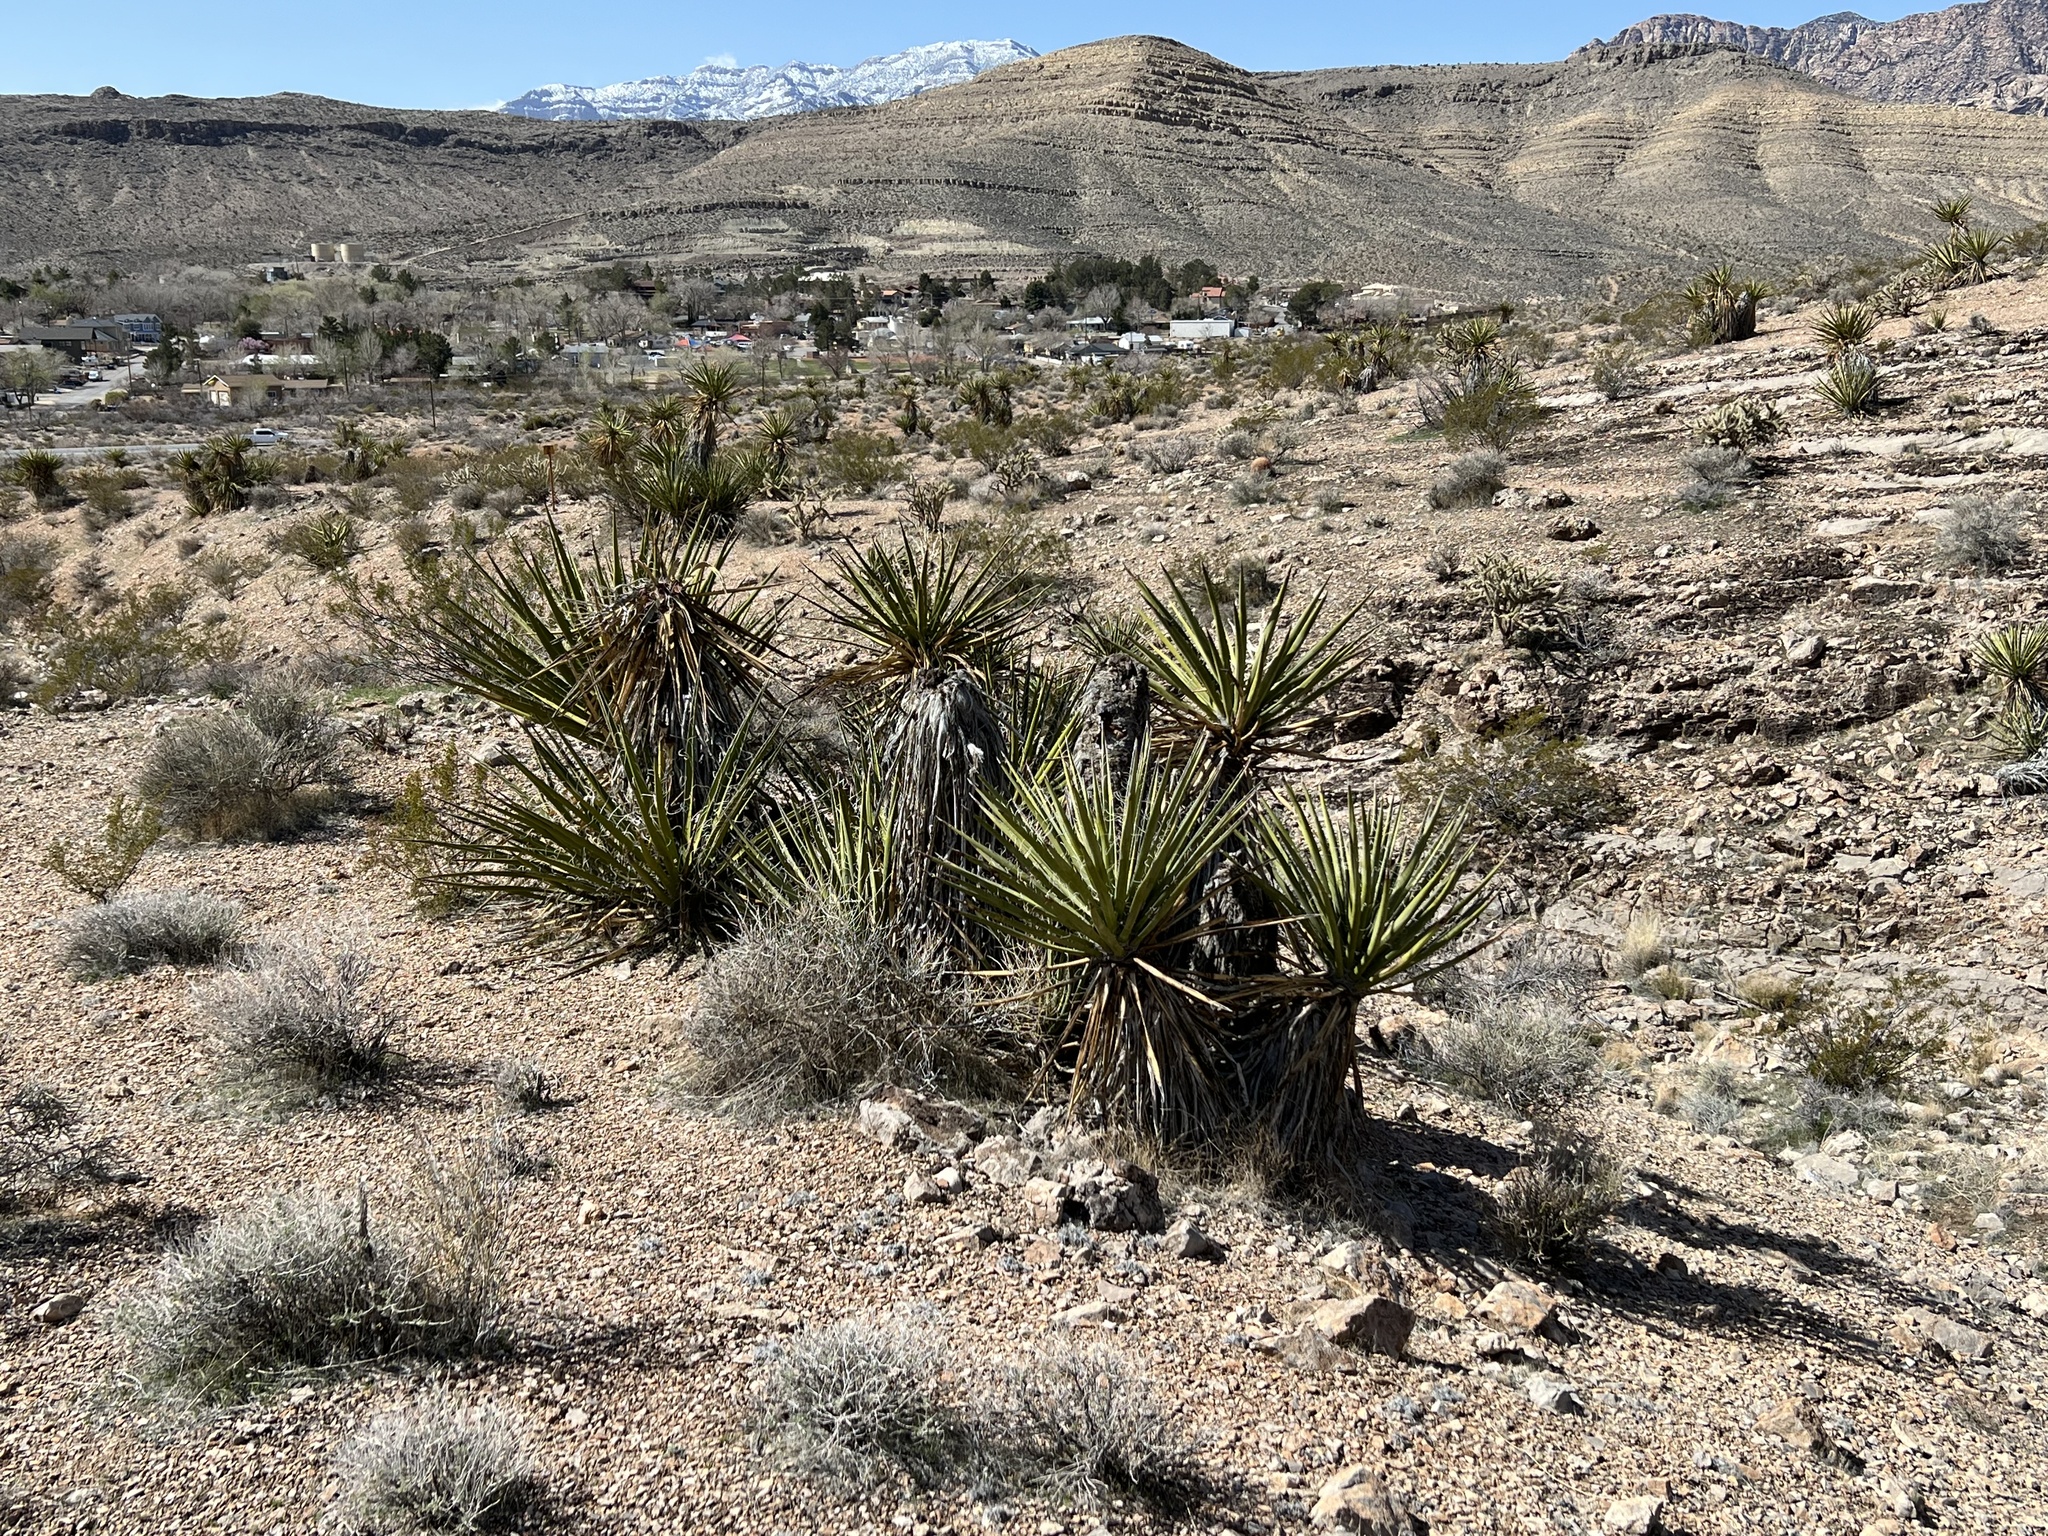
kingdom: Plantae
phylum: Tracheophyta
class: Liliopsida
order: Asparagales
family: Asparagaceae
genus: Yucca
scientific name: Yucca schidigera
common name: Mojave yucca
